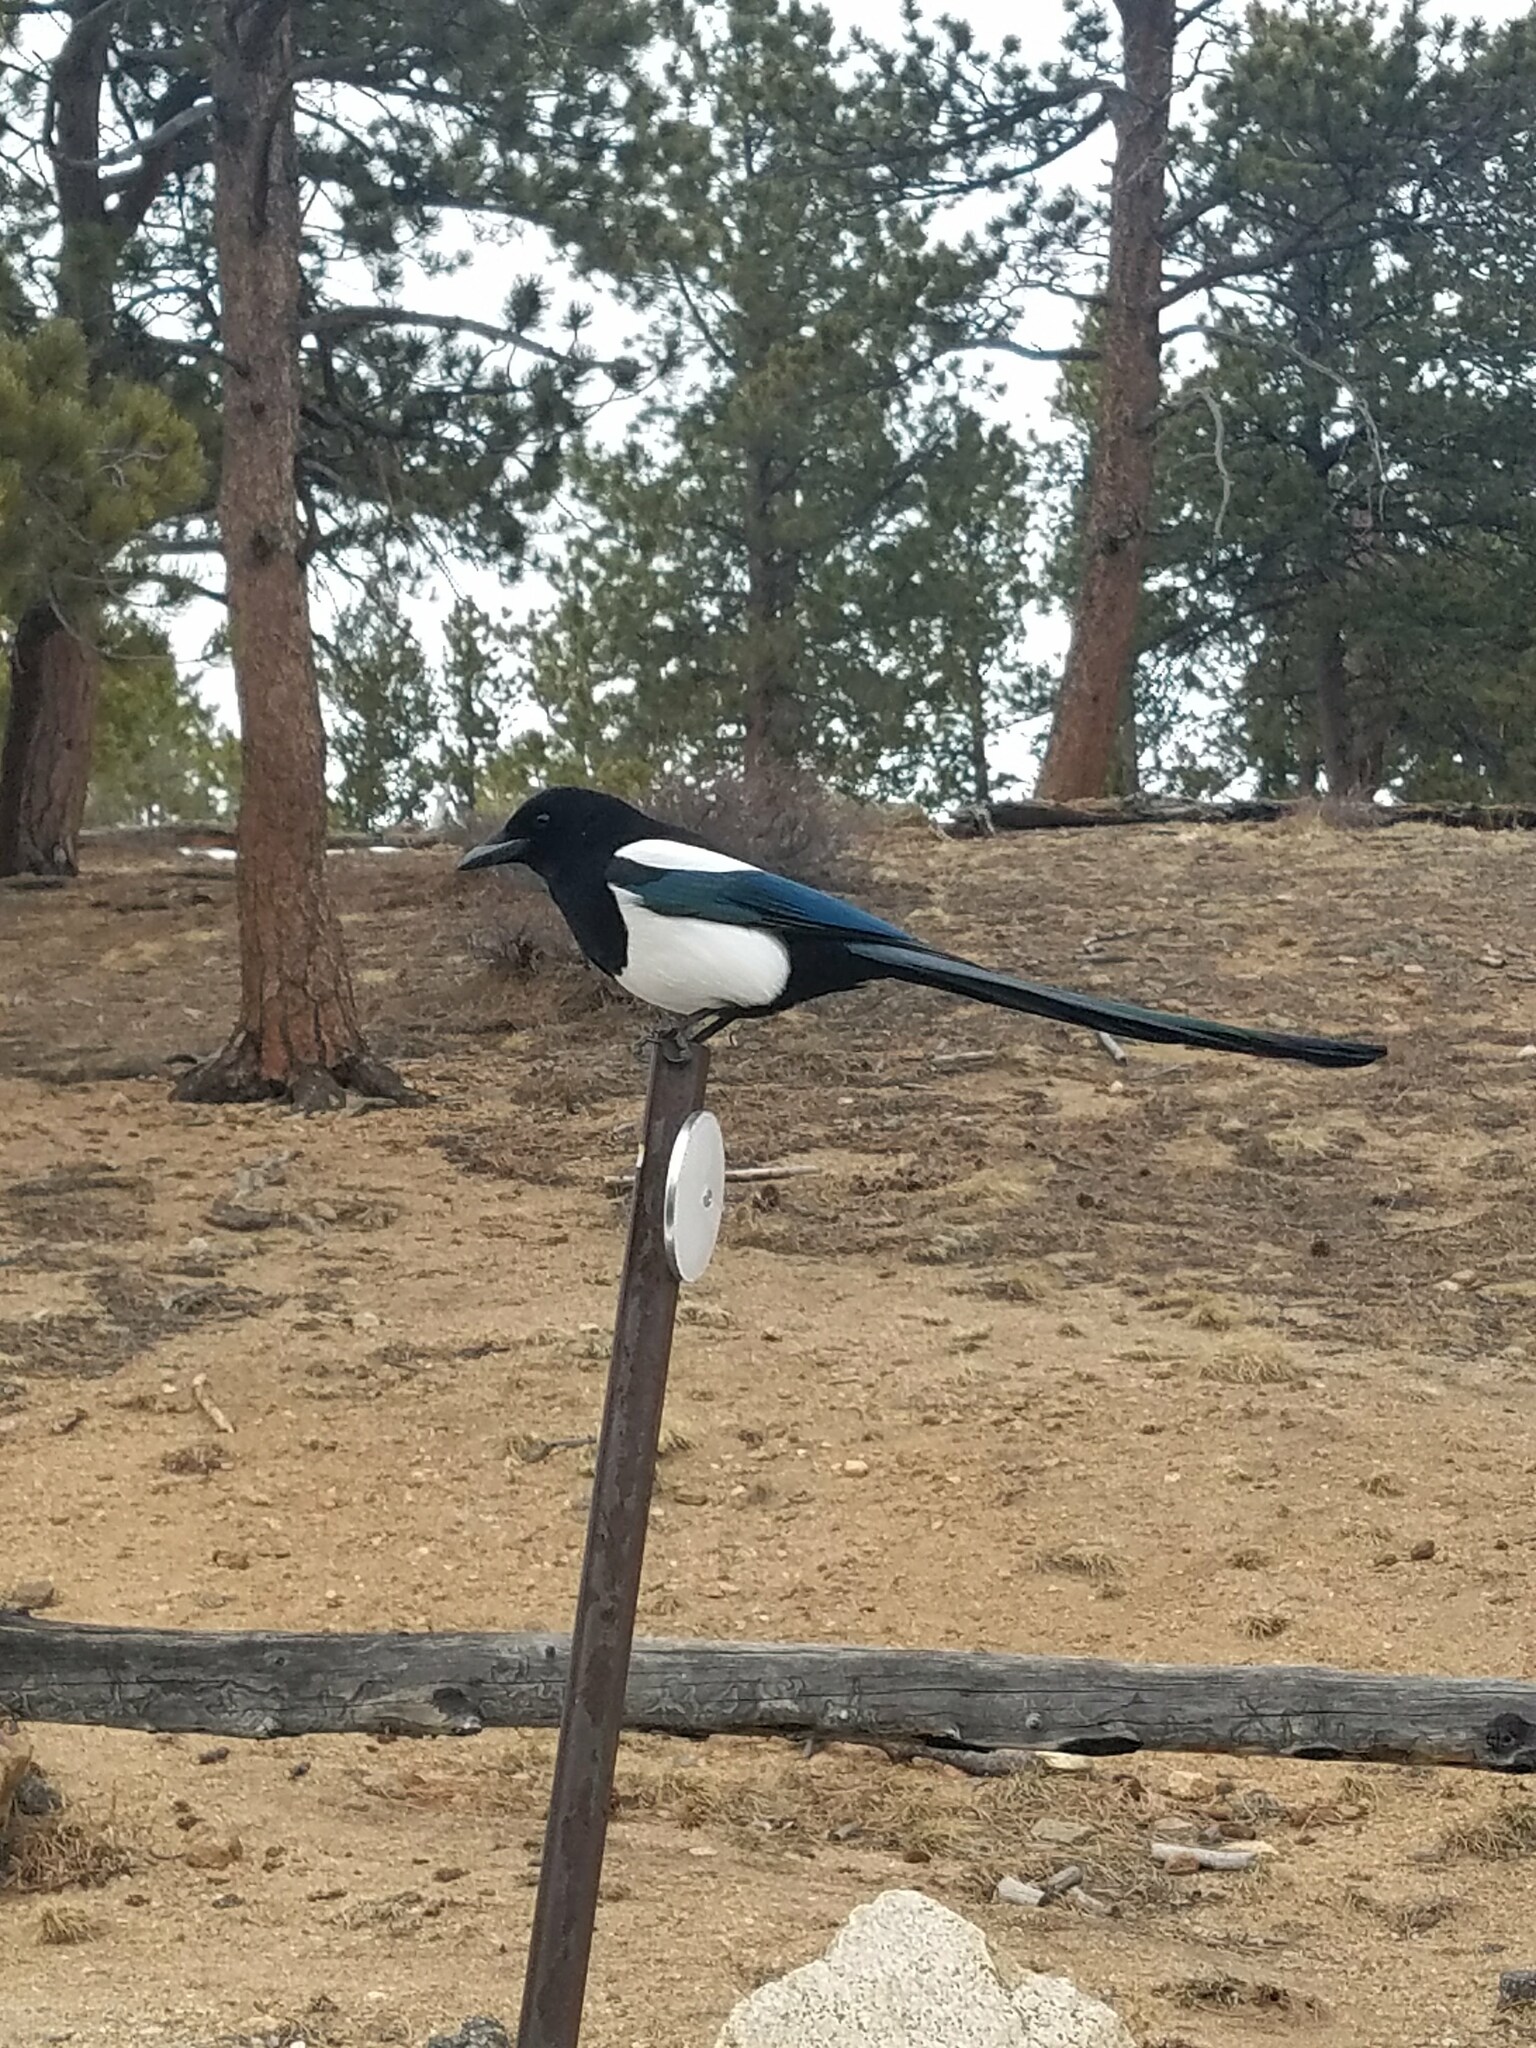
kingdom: Animalia
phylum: Chordata
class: Aves
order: Passeriformes
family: Corvidae
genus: Pica
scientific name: Pica hudsonia
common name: Black-billed magpie
